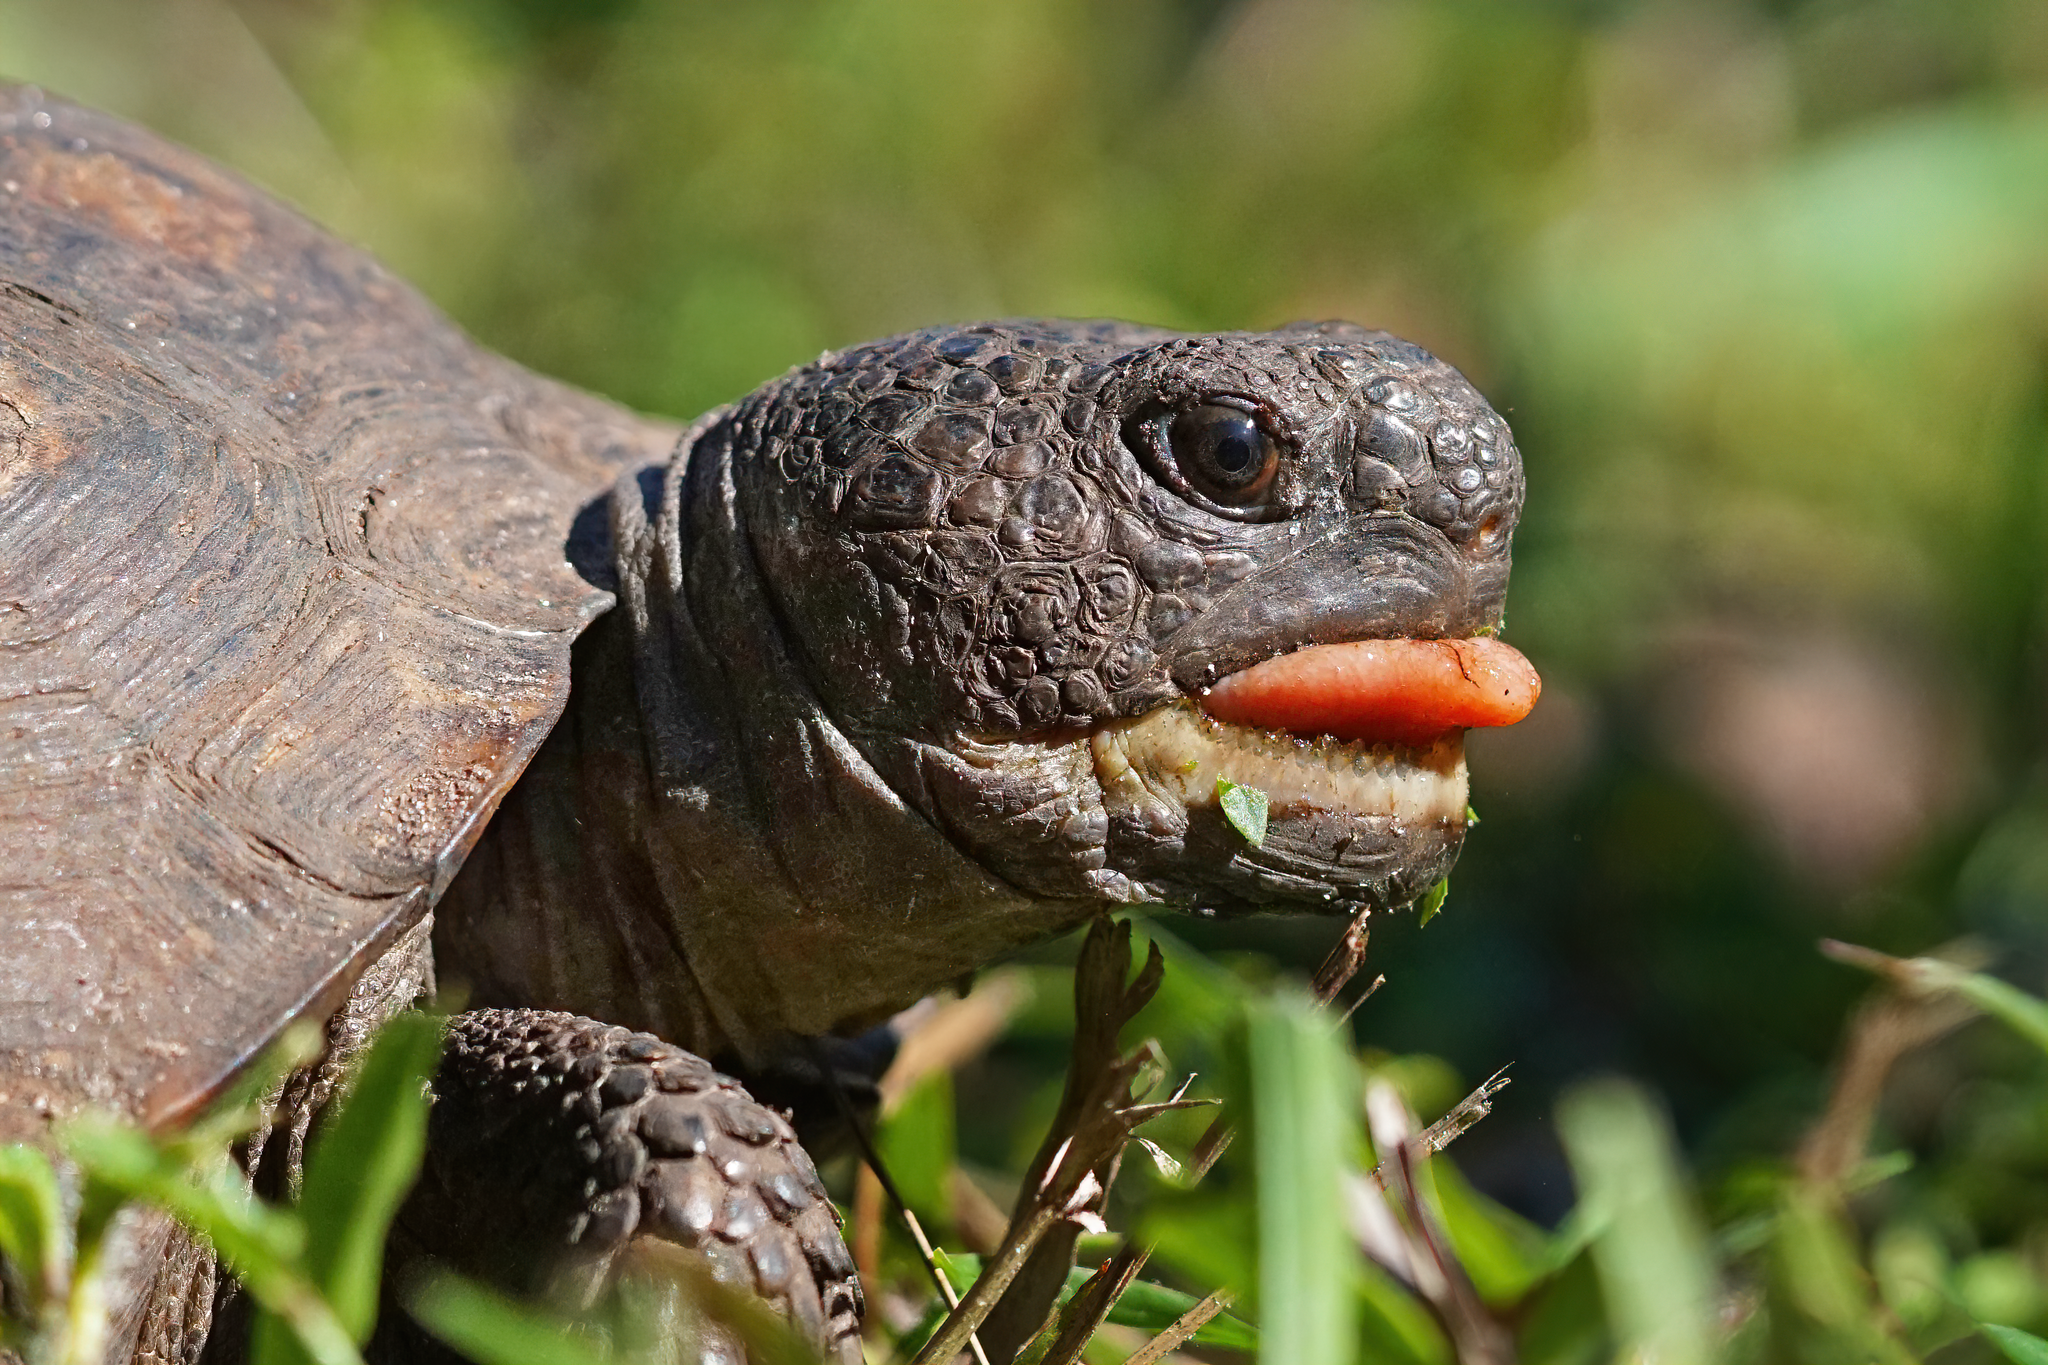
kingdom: Animalia
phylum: Chordata
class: Testudines
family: Testudinidae
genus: Gopherus
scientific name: Gopherus polyphemus
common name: Florida gopher tortoise
